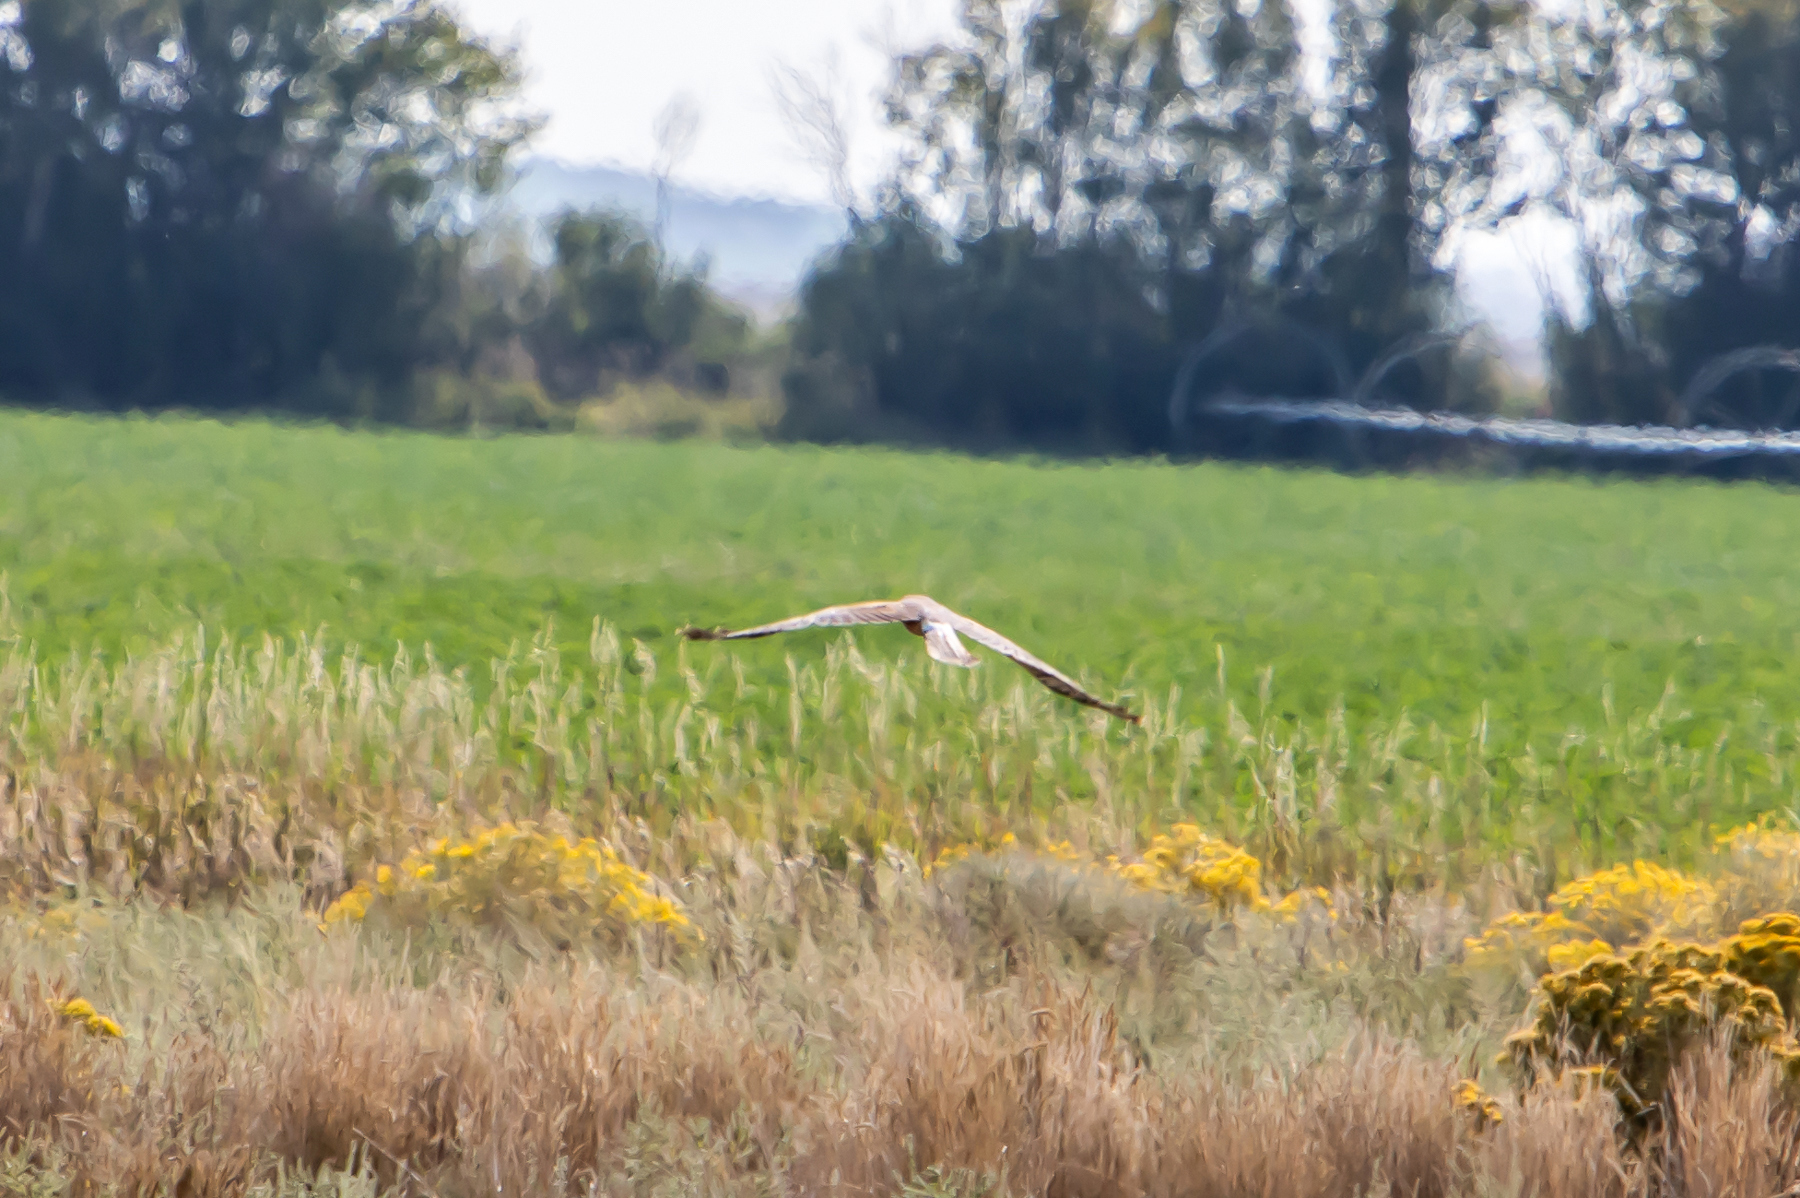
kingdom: Animalia
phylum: Chordata
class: Aves
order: Accipitriformes
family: Accipitridae
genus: Circus
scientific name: Circus cyaneus
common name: Hen harrier
